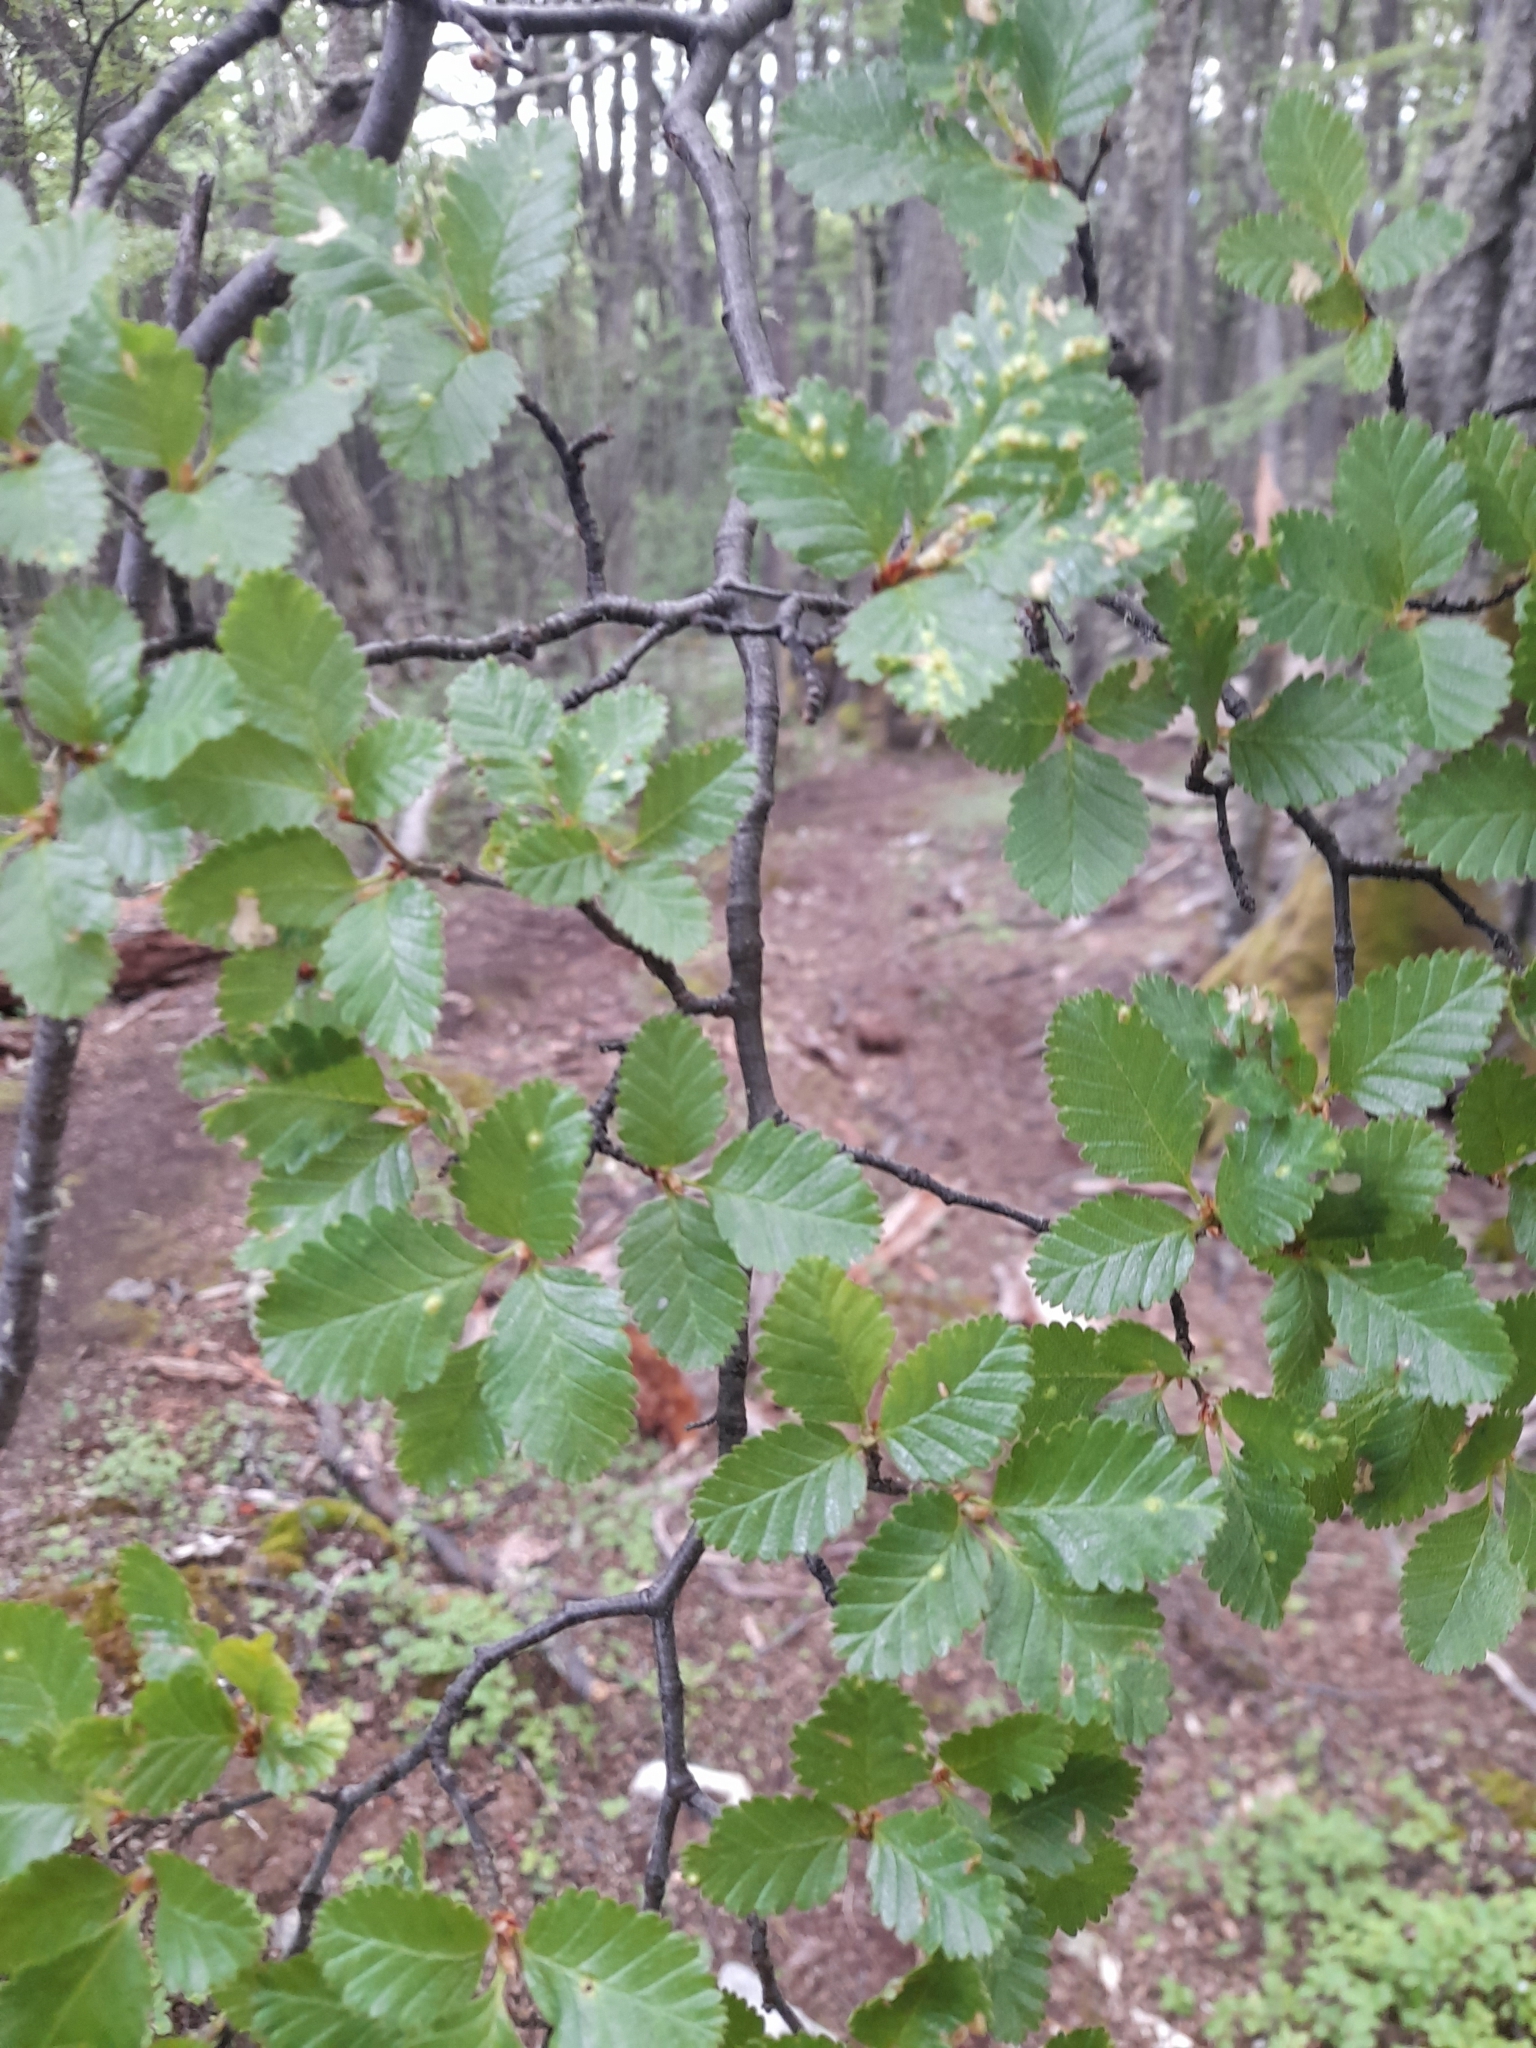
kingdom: Plantae
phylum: Tracheophyta
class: Magnoliopsida
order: Fagales
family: Nothofagaceae
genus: Nothofagus
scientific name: Nothofagus pumilio
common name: Lenga beech
